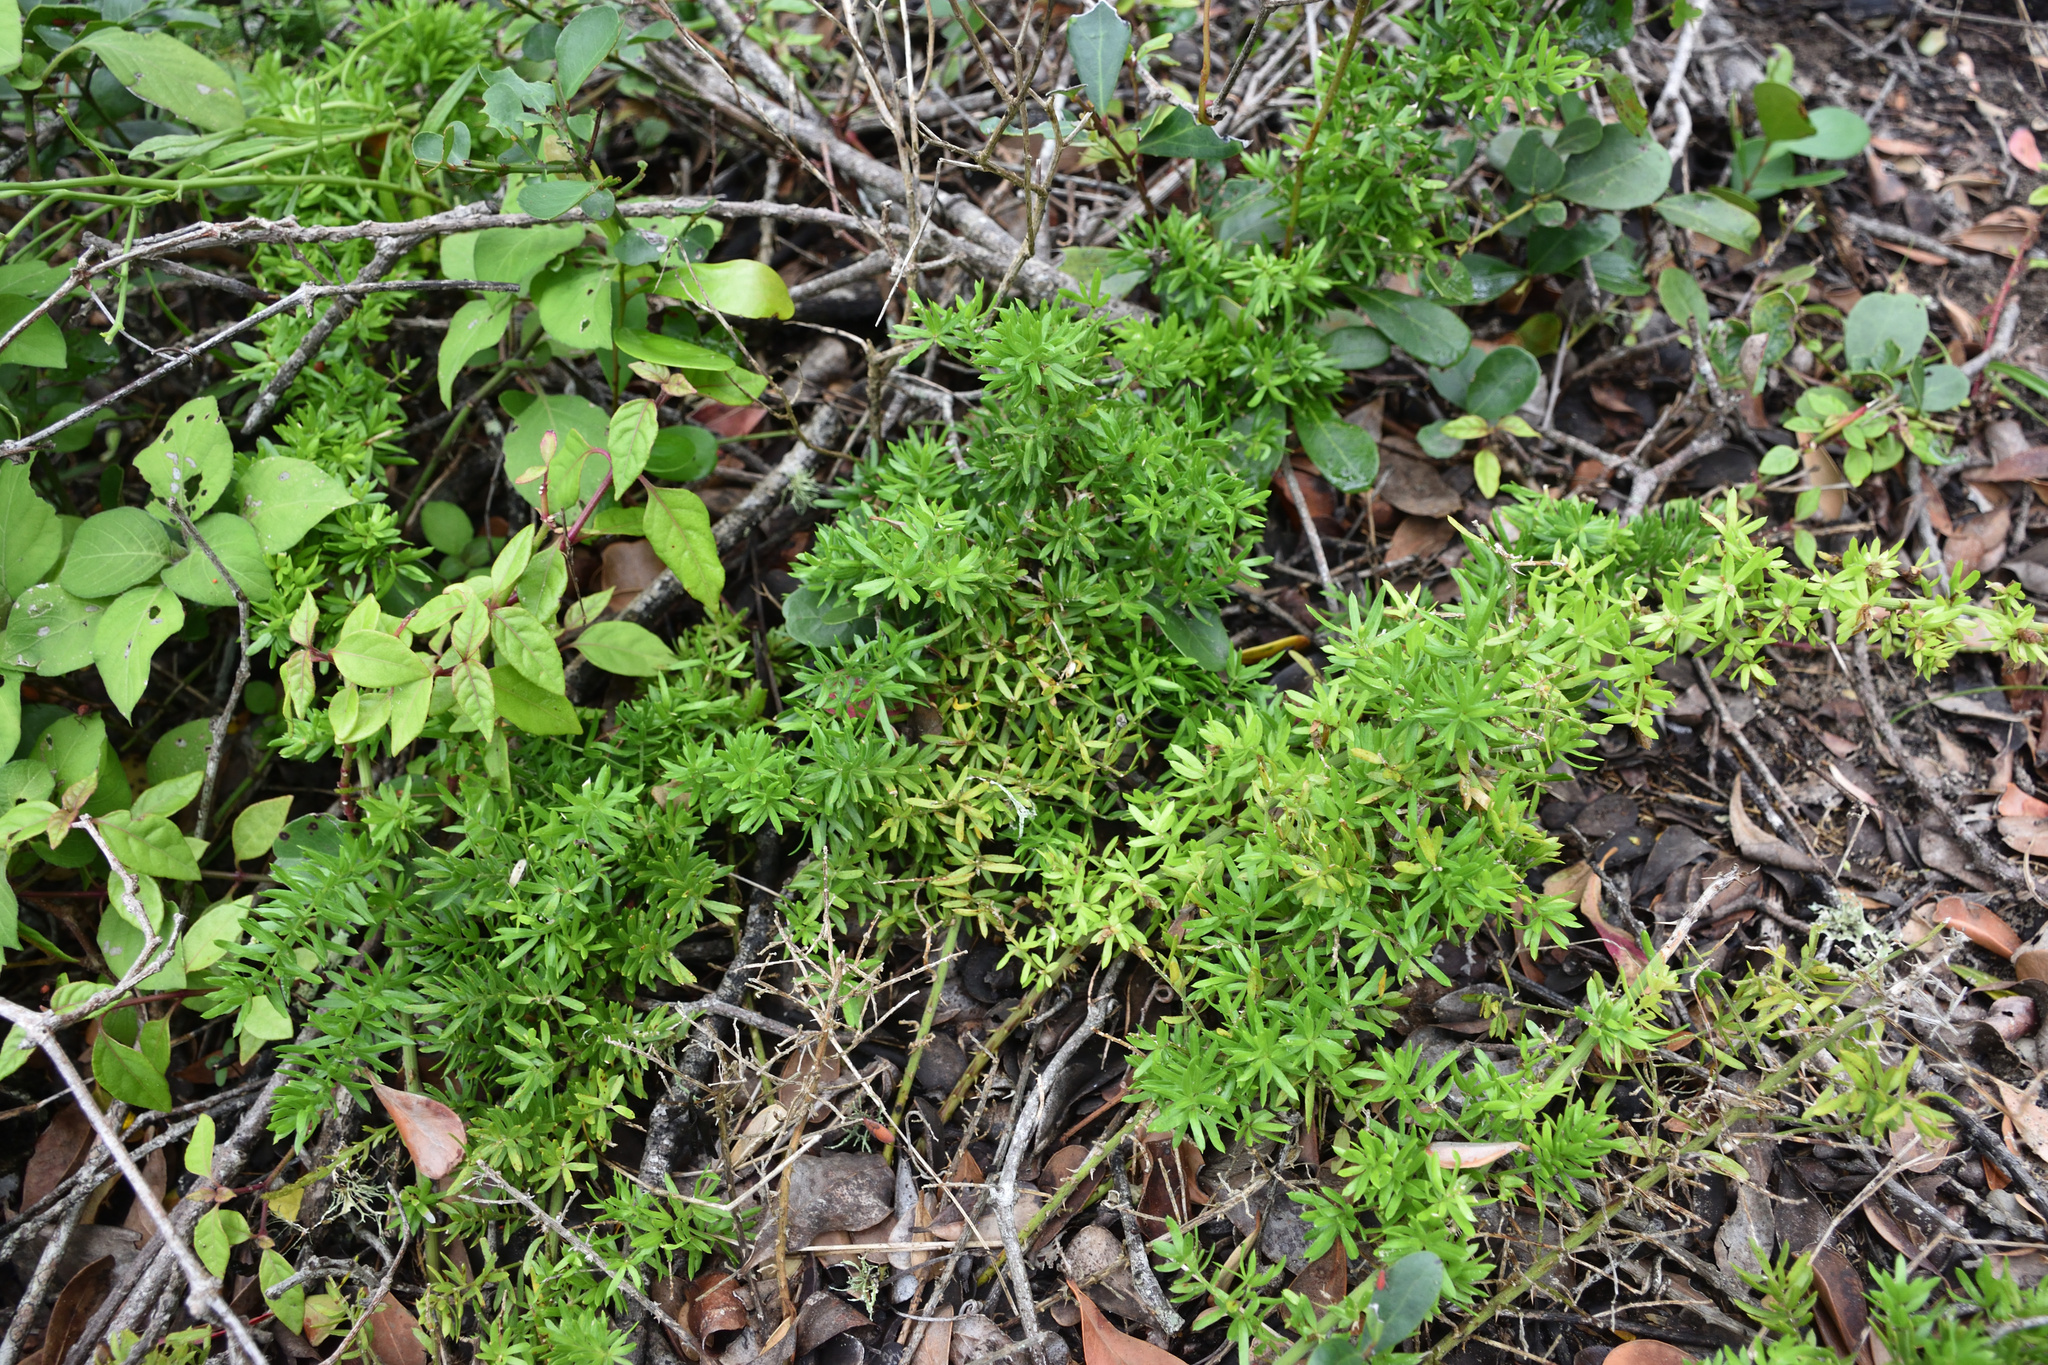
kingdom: Plantae
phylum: Tracheophyta
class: Liliopsida
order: Asparagales
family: Asparagaceae
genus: Asparagus
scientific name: Asparagus densiflorus
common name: Asparagus fern
